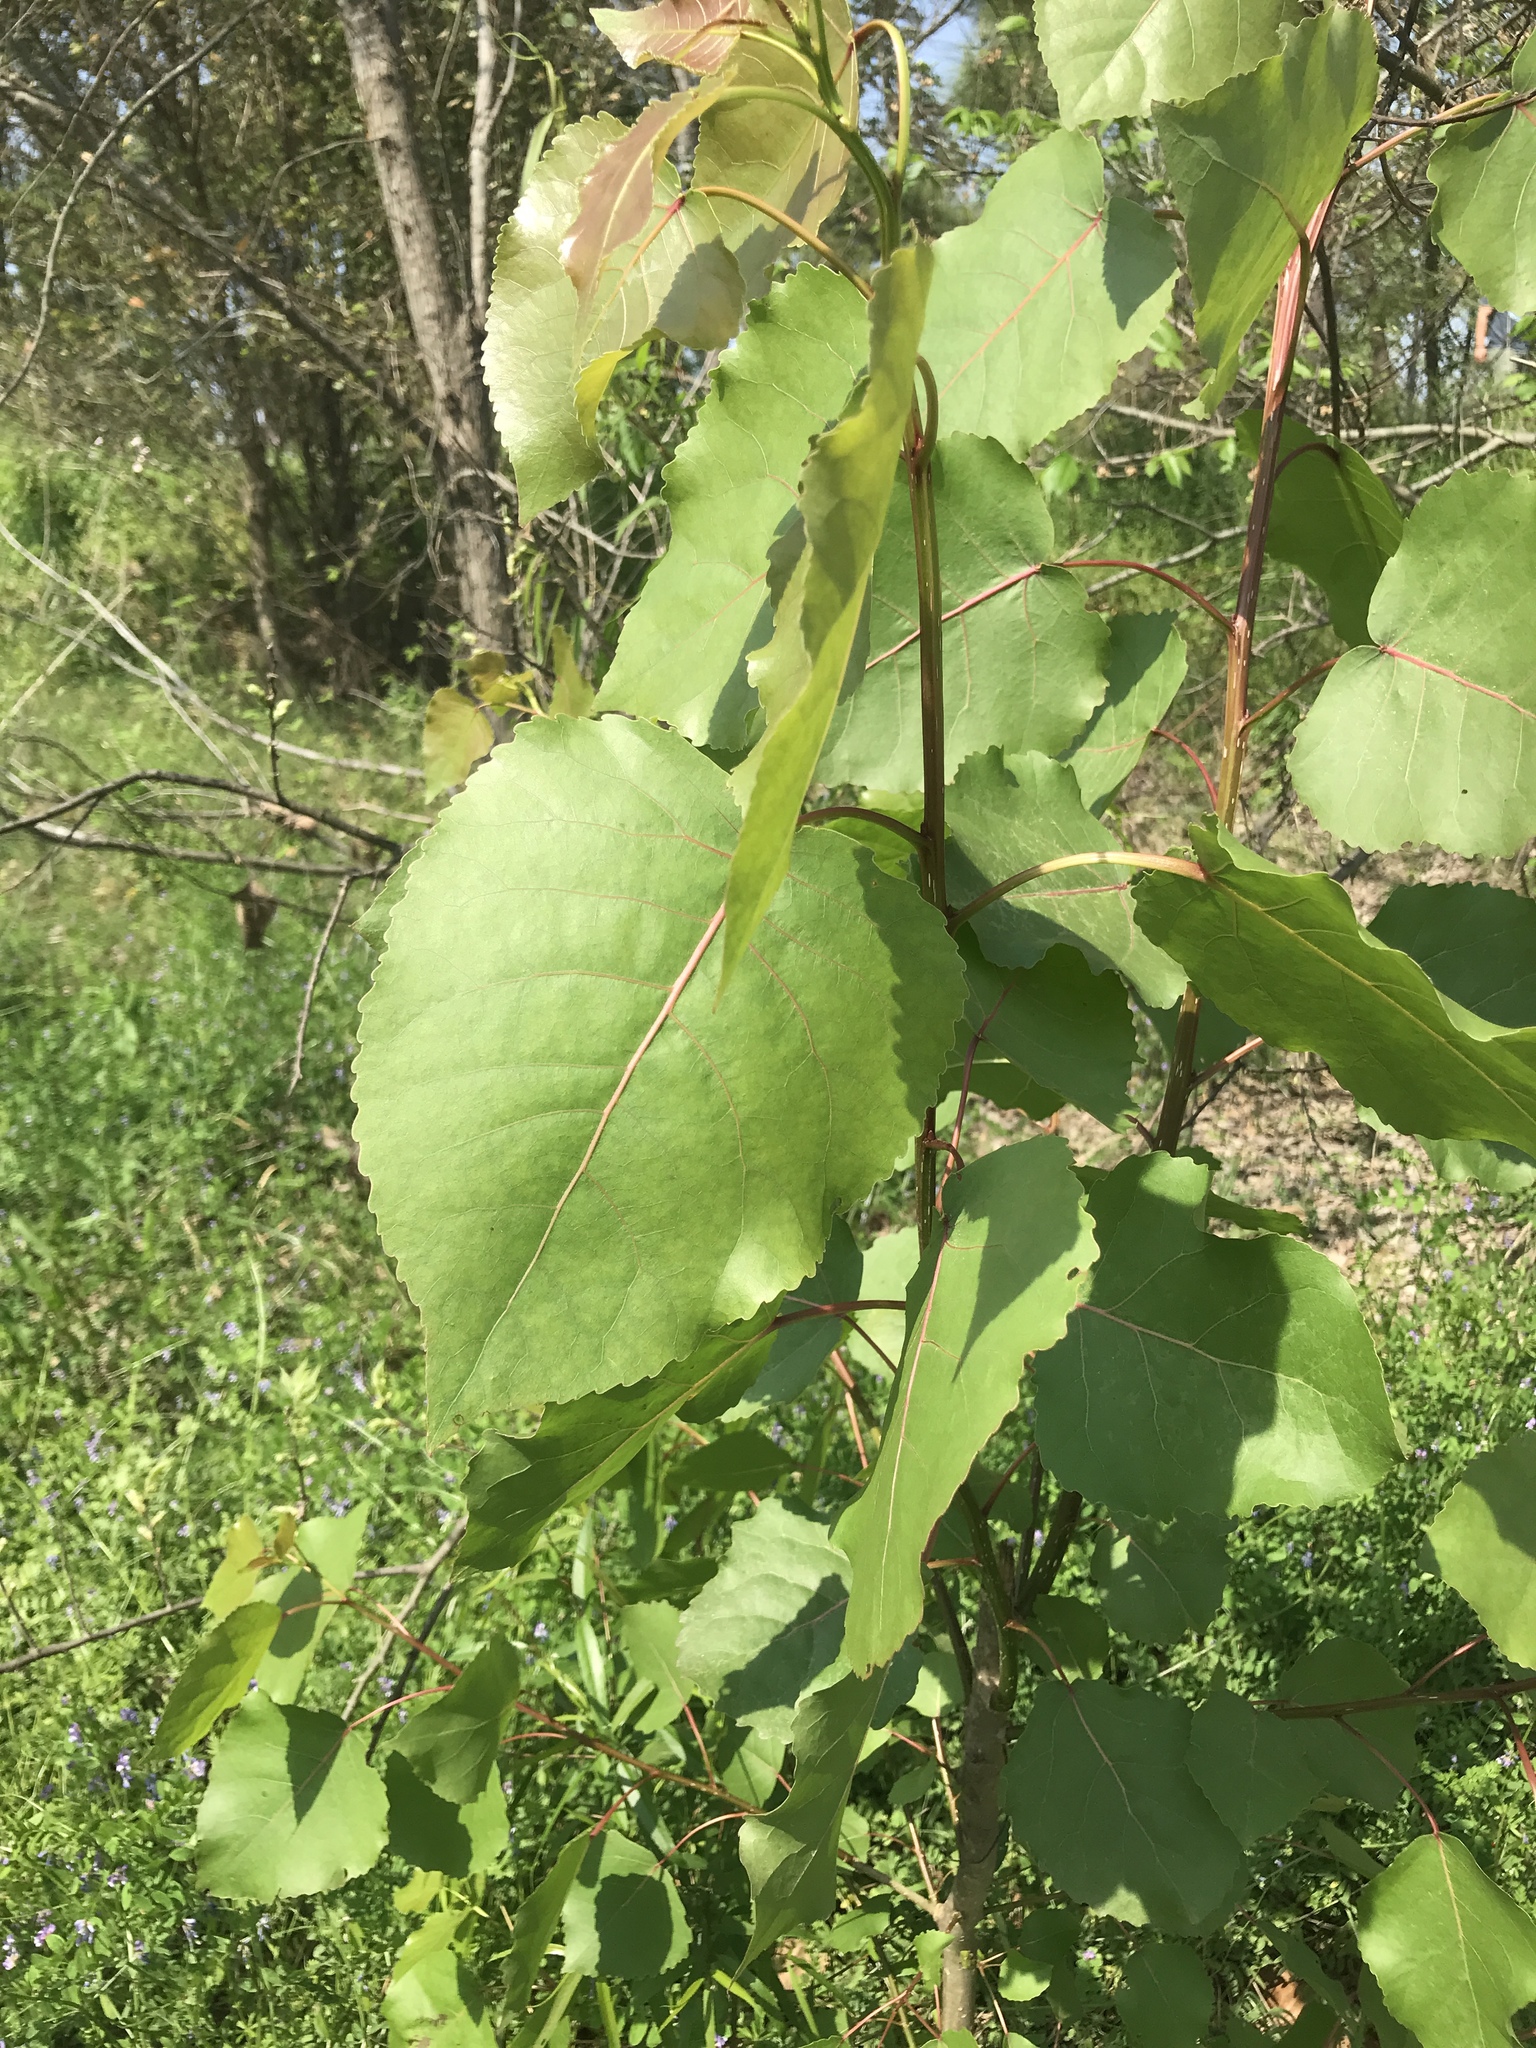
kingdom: Plantae
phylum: Tracheophyta
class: Magnoliopsida
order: Malpighiales
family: Salicaceae
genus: Populus
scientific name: Populus deltoides
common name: Eastern cottonwood
